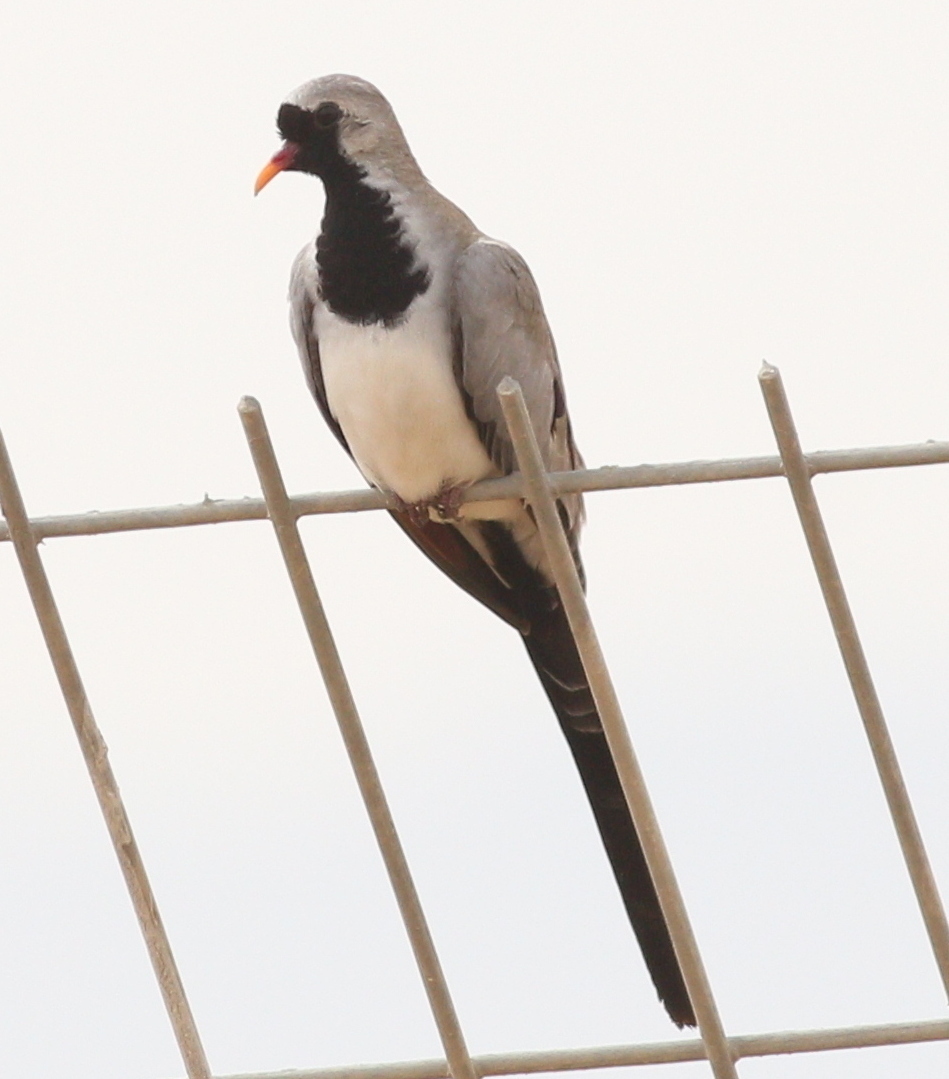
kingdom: Animalia
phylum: Chordata
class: Aves
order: Columbiformes
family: Columbidae
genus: Oena
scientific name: Oena capensis
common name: Namaqua dove
